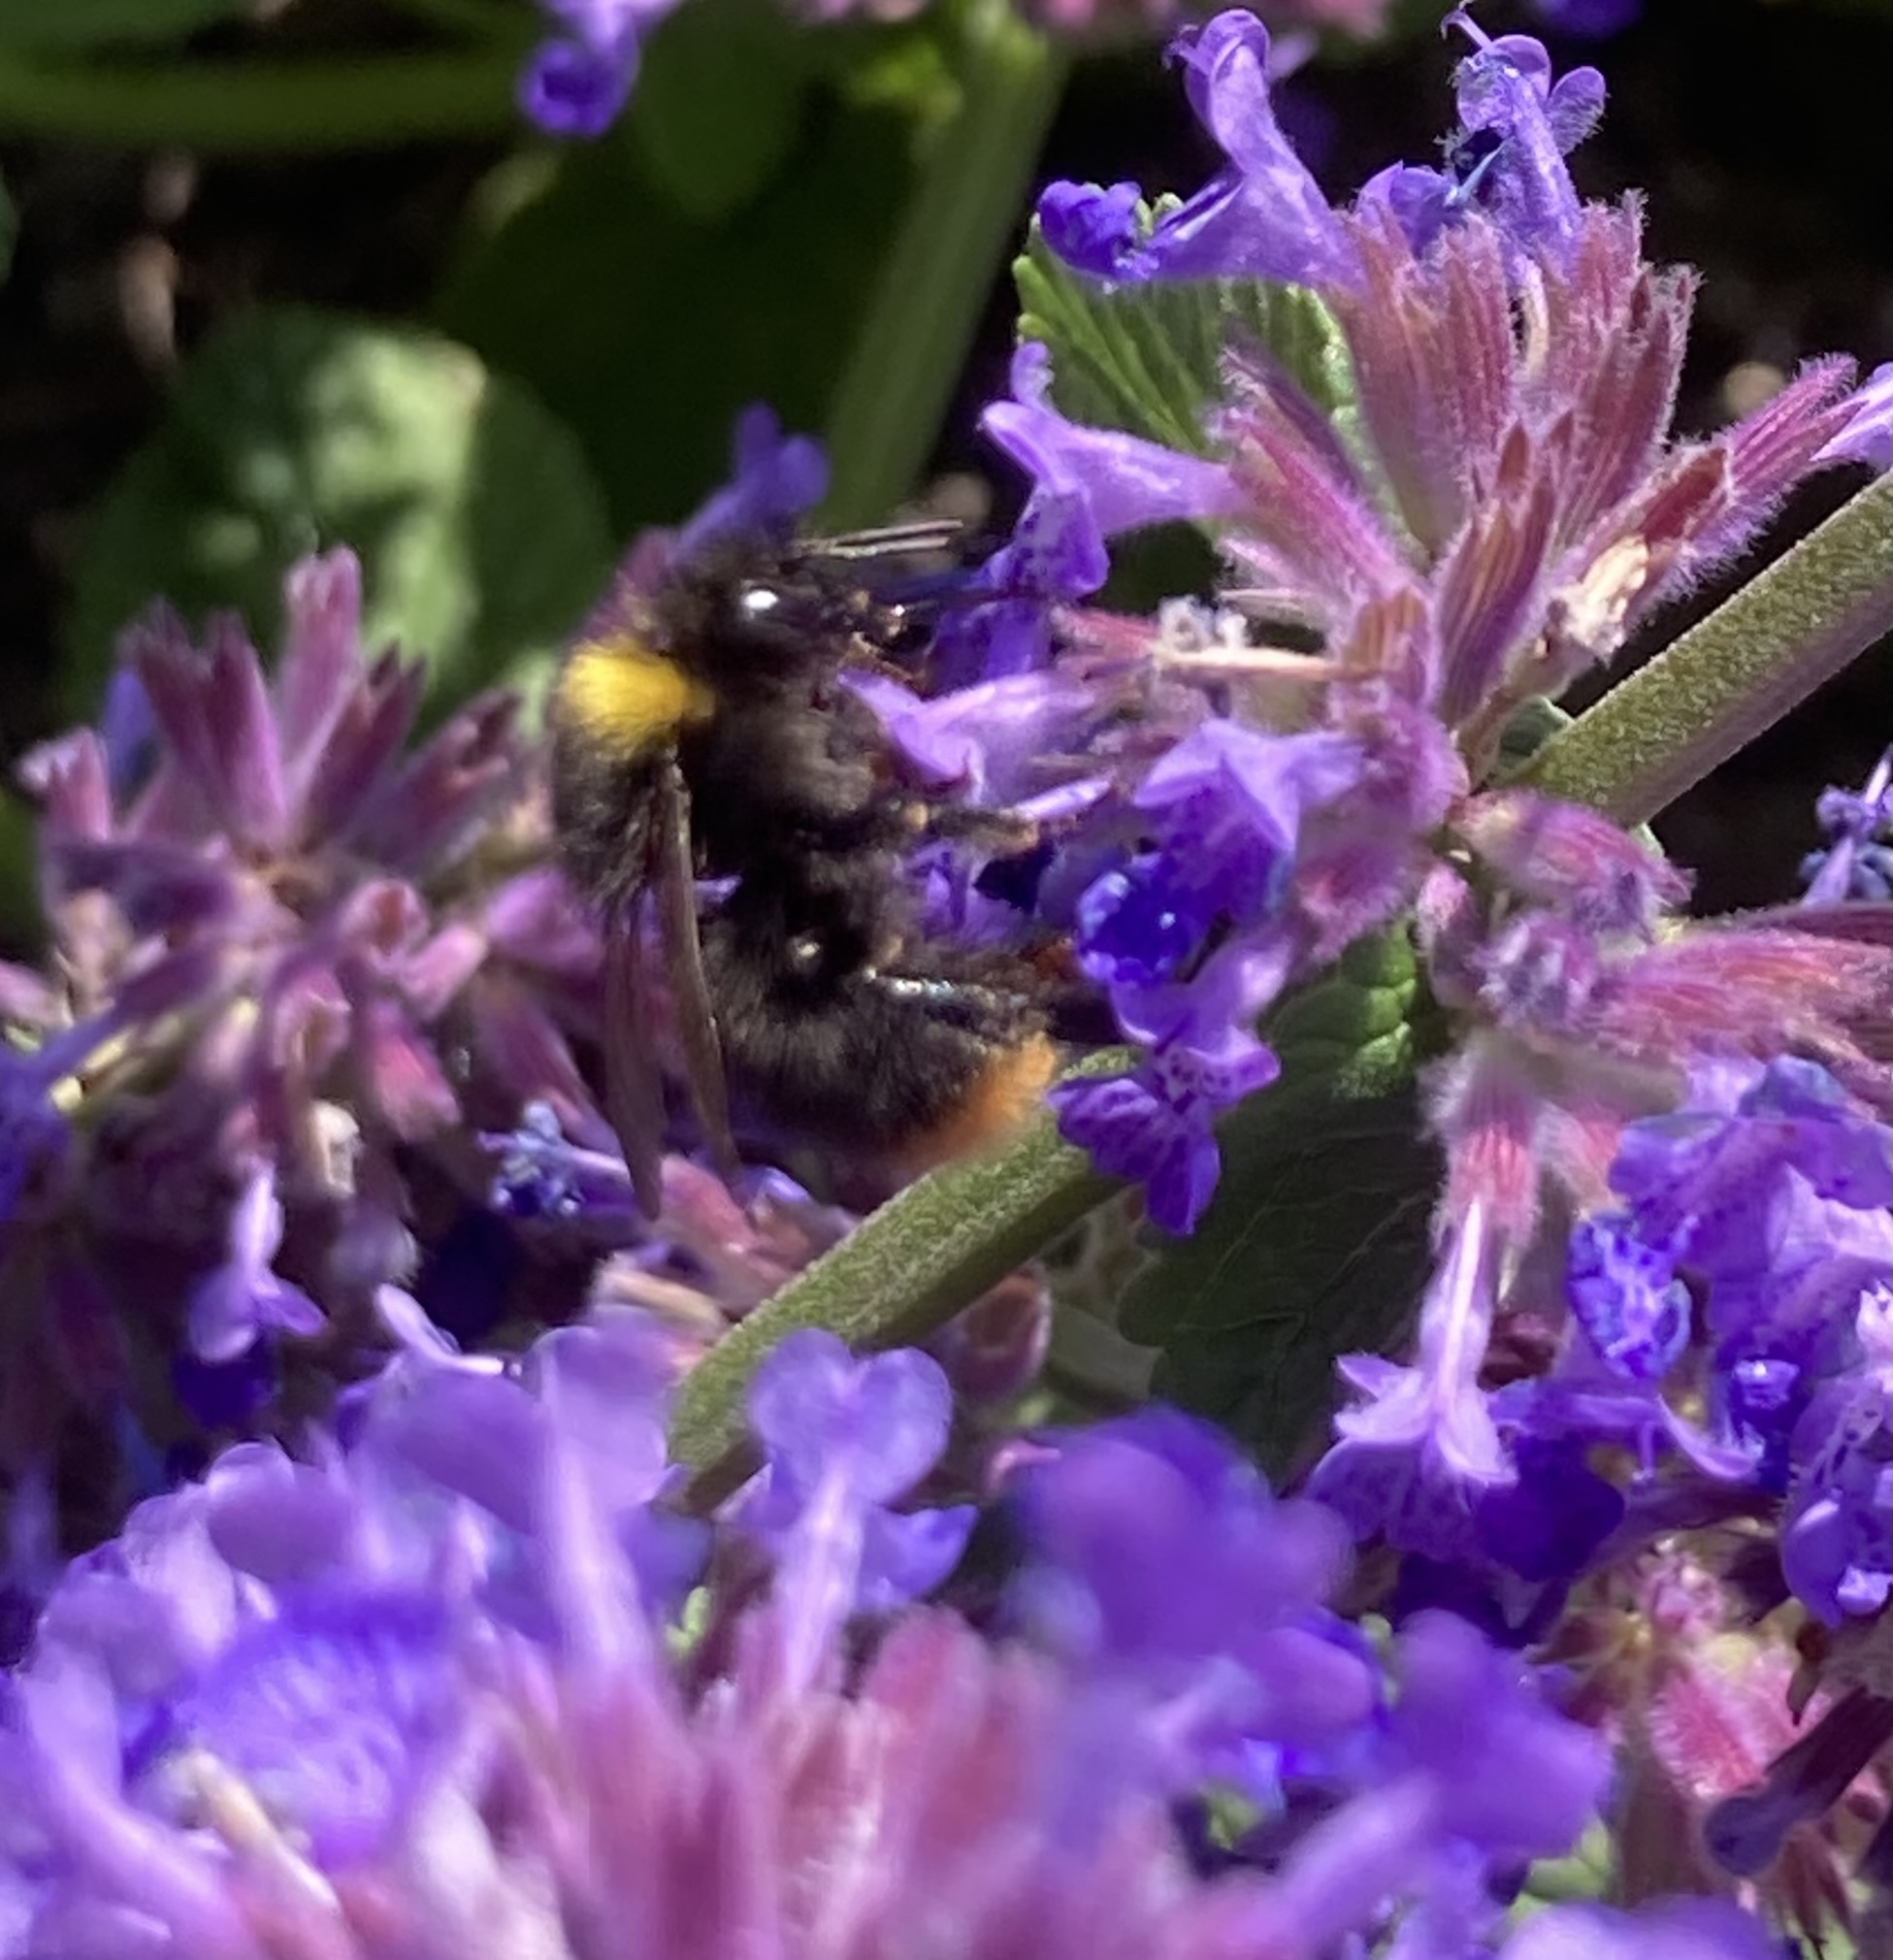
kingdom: Animalia
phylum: Arthropoda
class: Insecta
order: Hymenoptera
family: Apidae
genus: Bombus
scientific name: Bombus pratorum
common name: Early humble-bee
